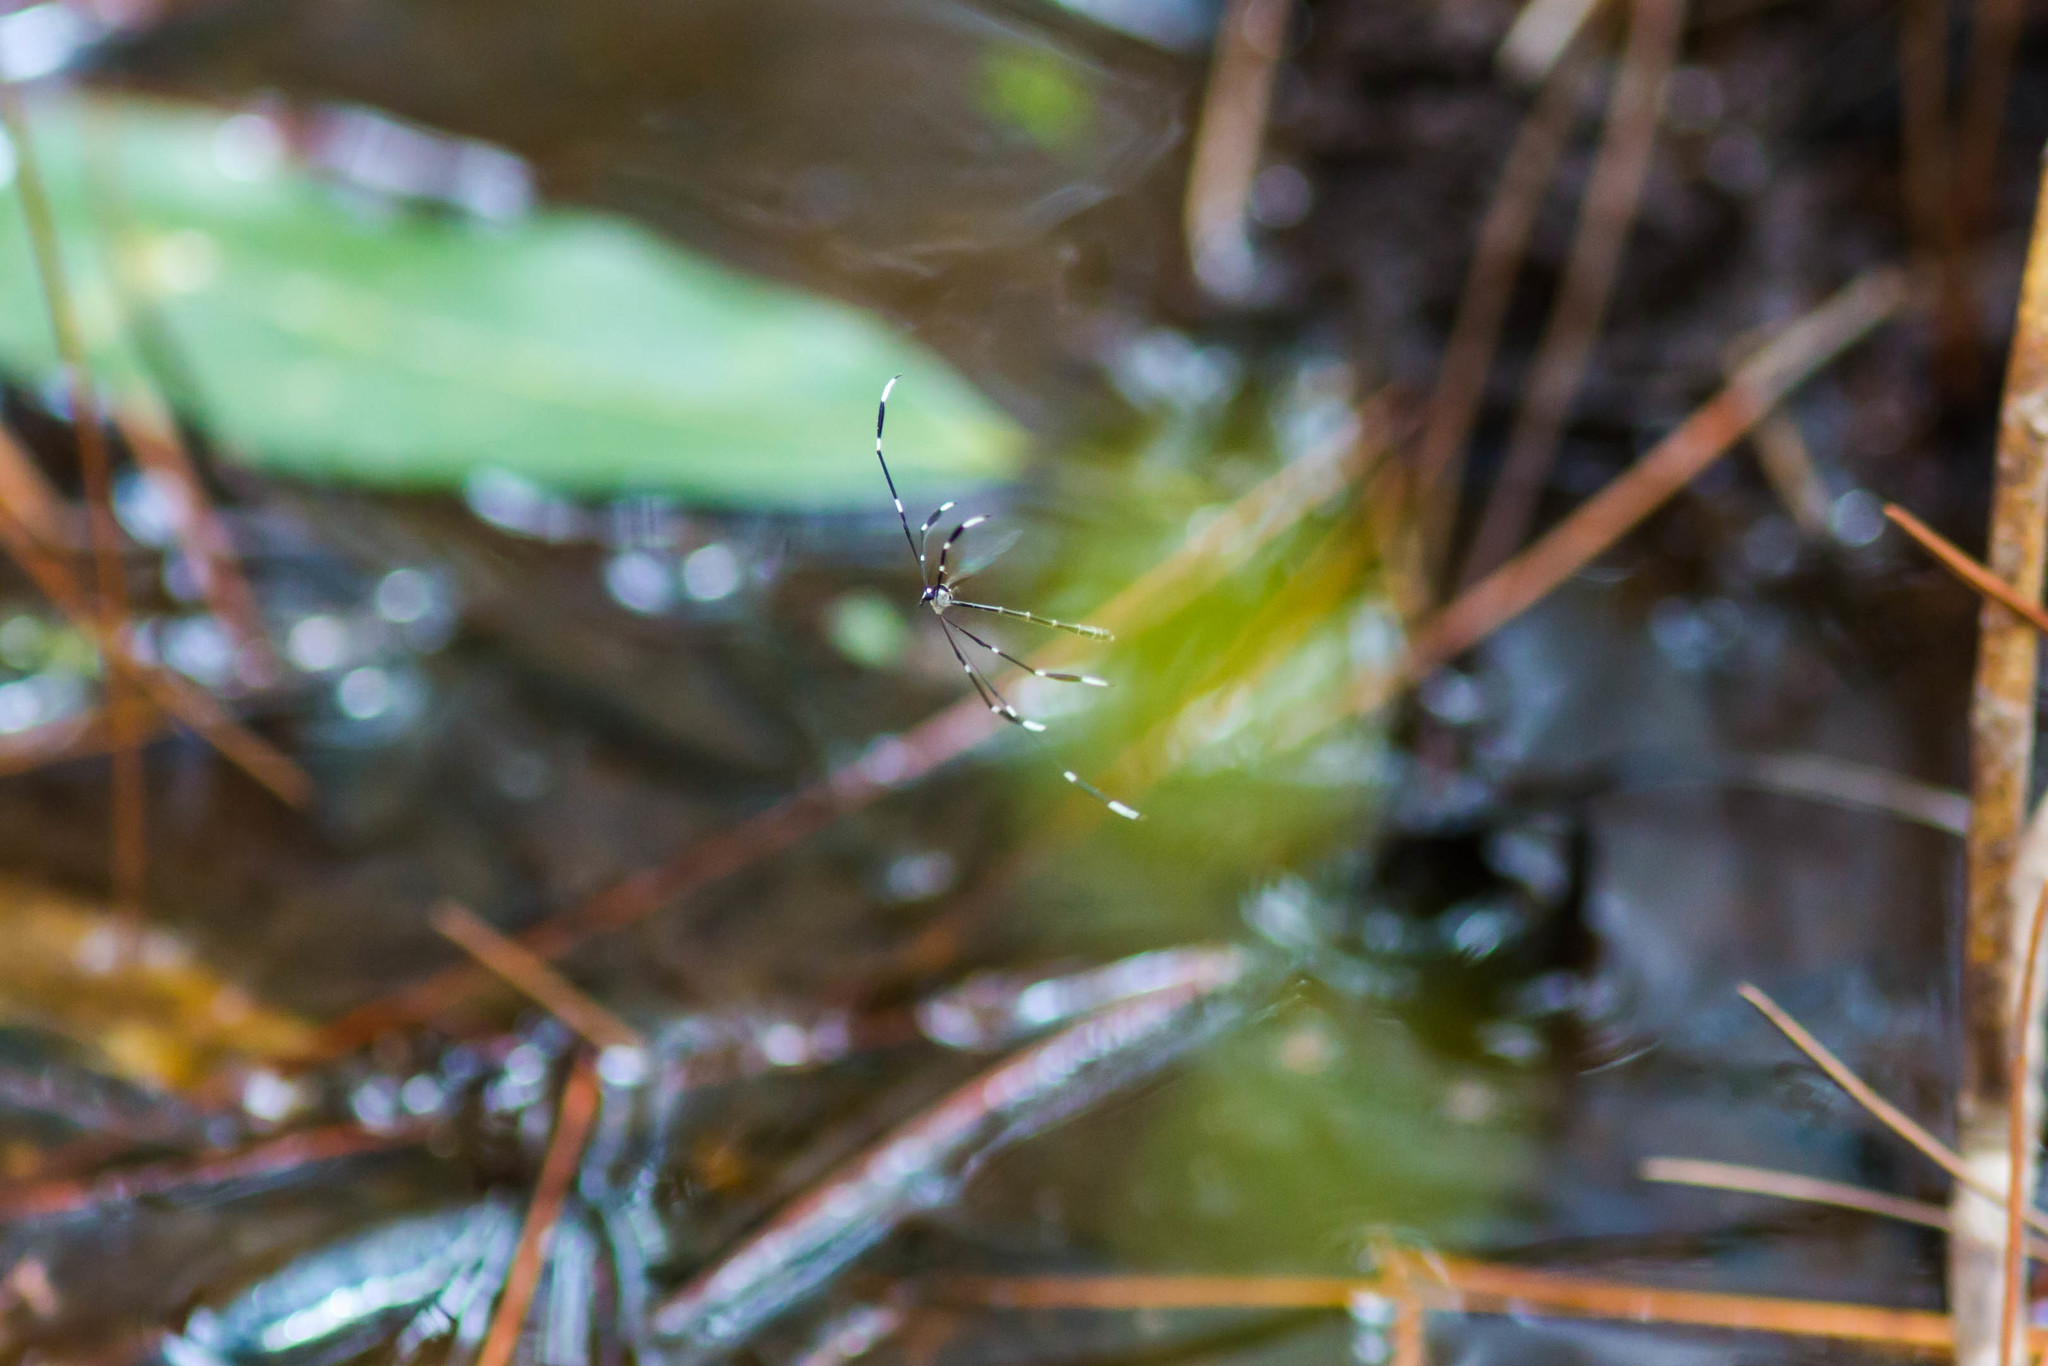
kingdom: Animalia
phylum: Arthropoda
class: Insecta
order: Diptera
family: Ptychopteridae
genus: Bittacomorpha
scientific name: Bittacomorpha clavipes
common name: Eastern phantom crane fly
